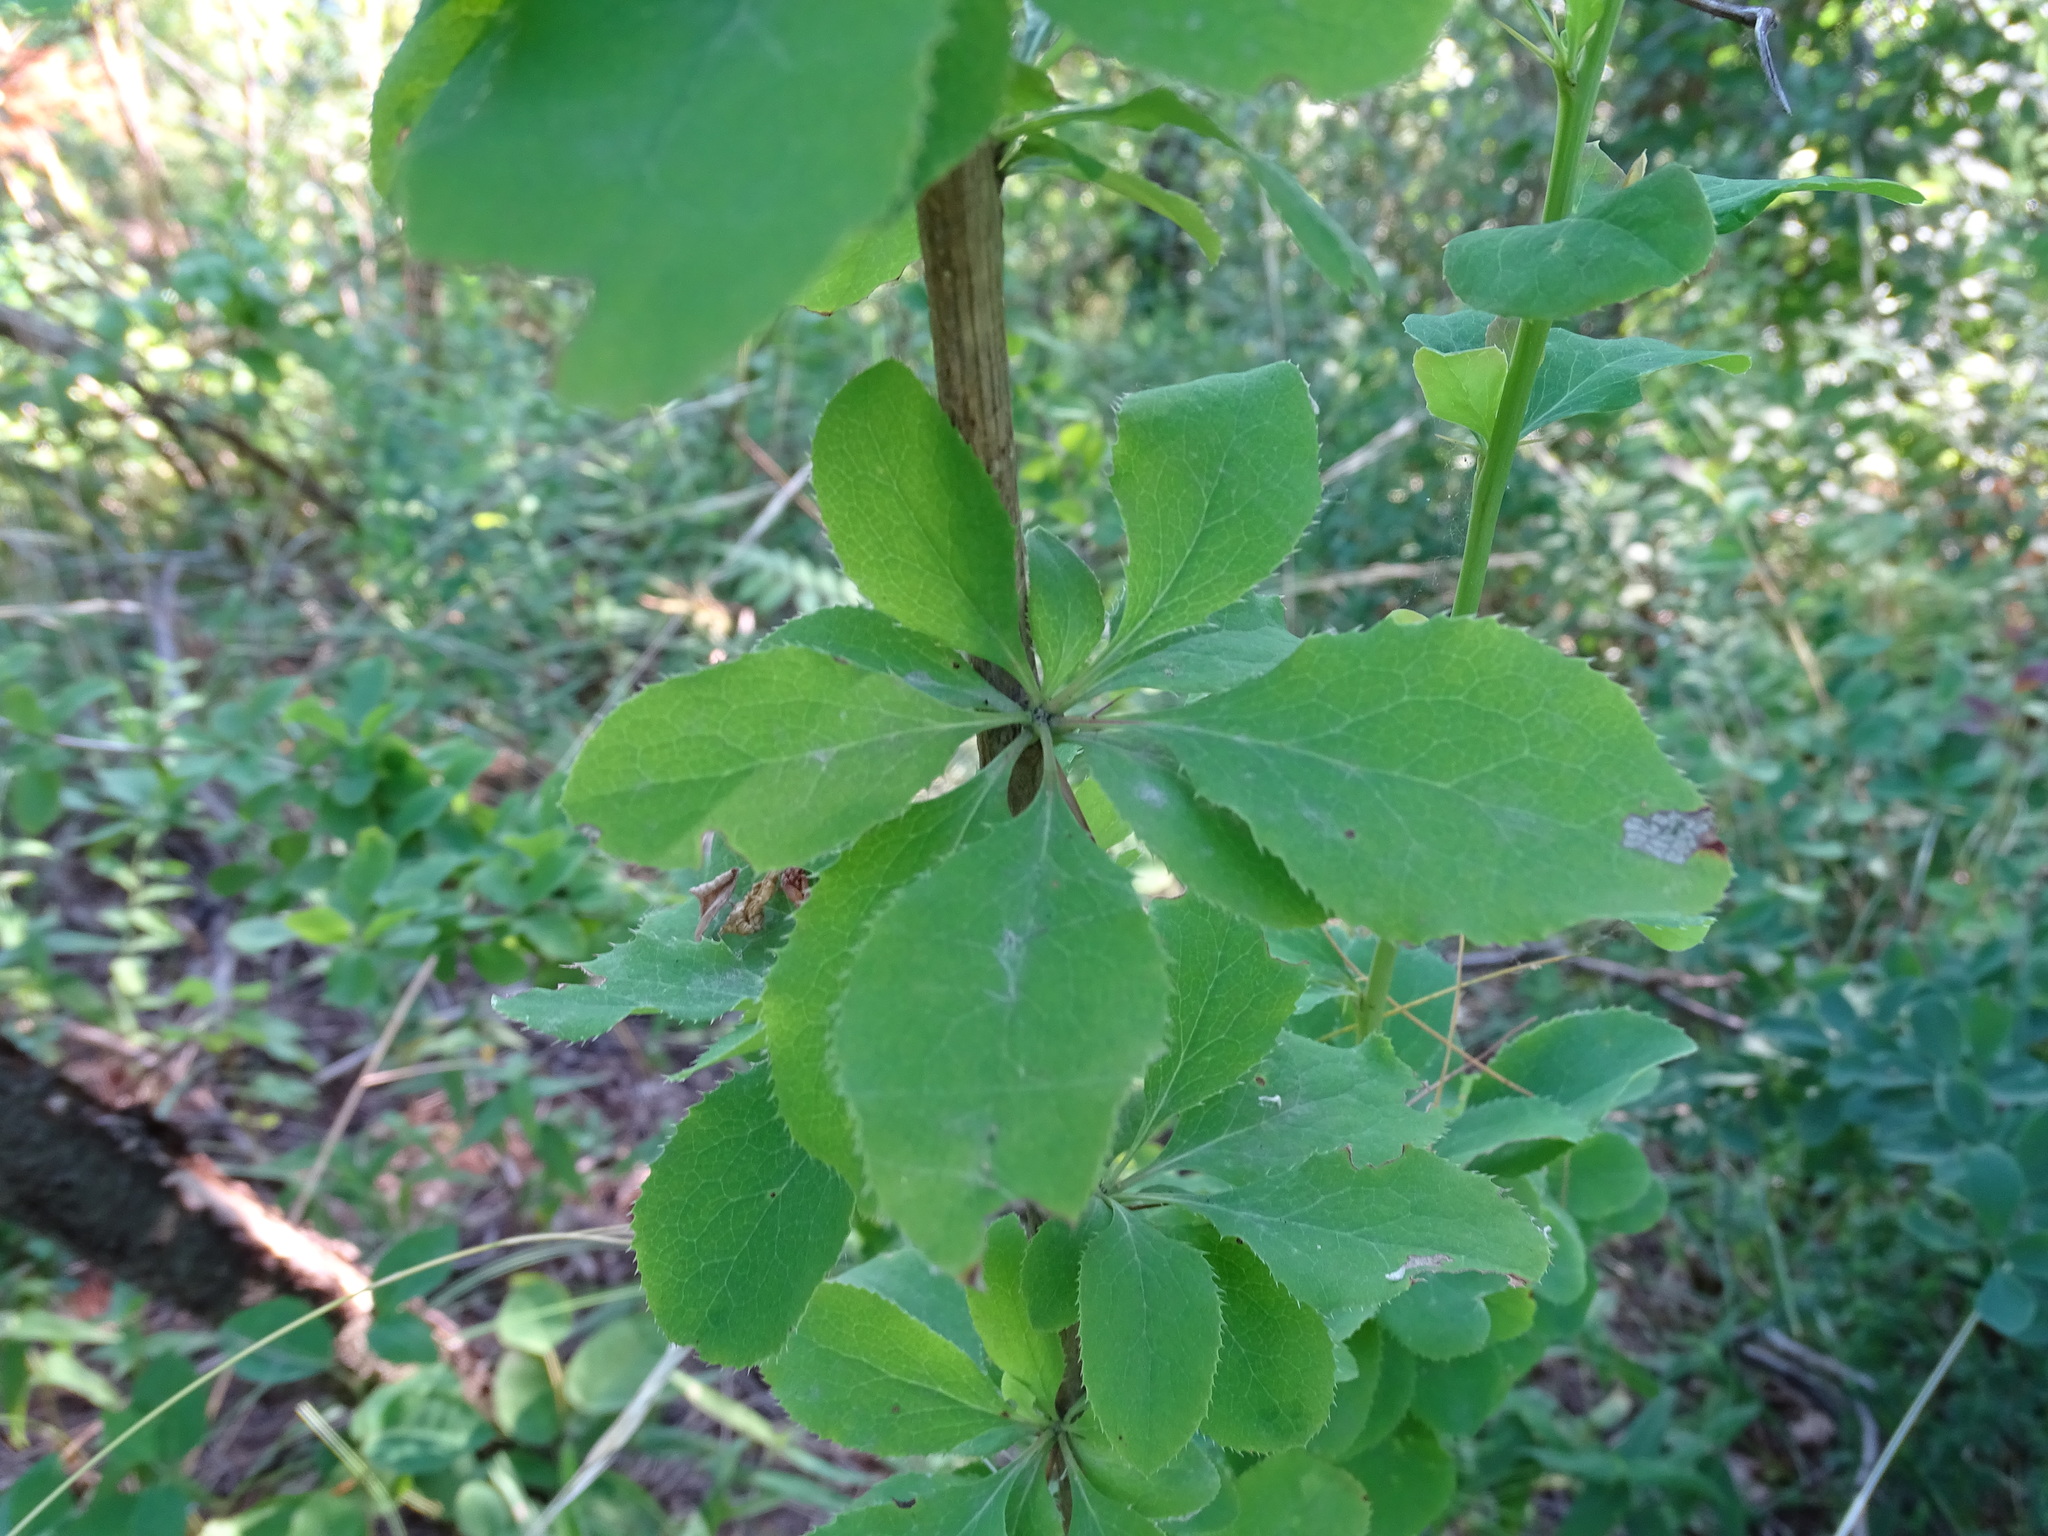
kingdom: Plantae
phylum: Tracheophyta
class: Magnoliopsida
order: Ranunculales
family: Berberidaceae
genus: Berberis
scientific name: Berberis vulgaris
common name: Barberry
